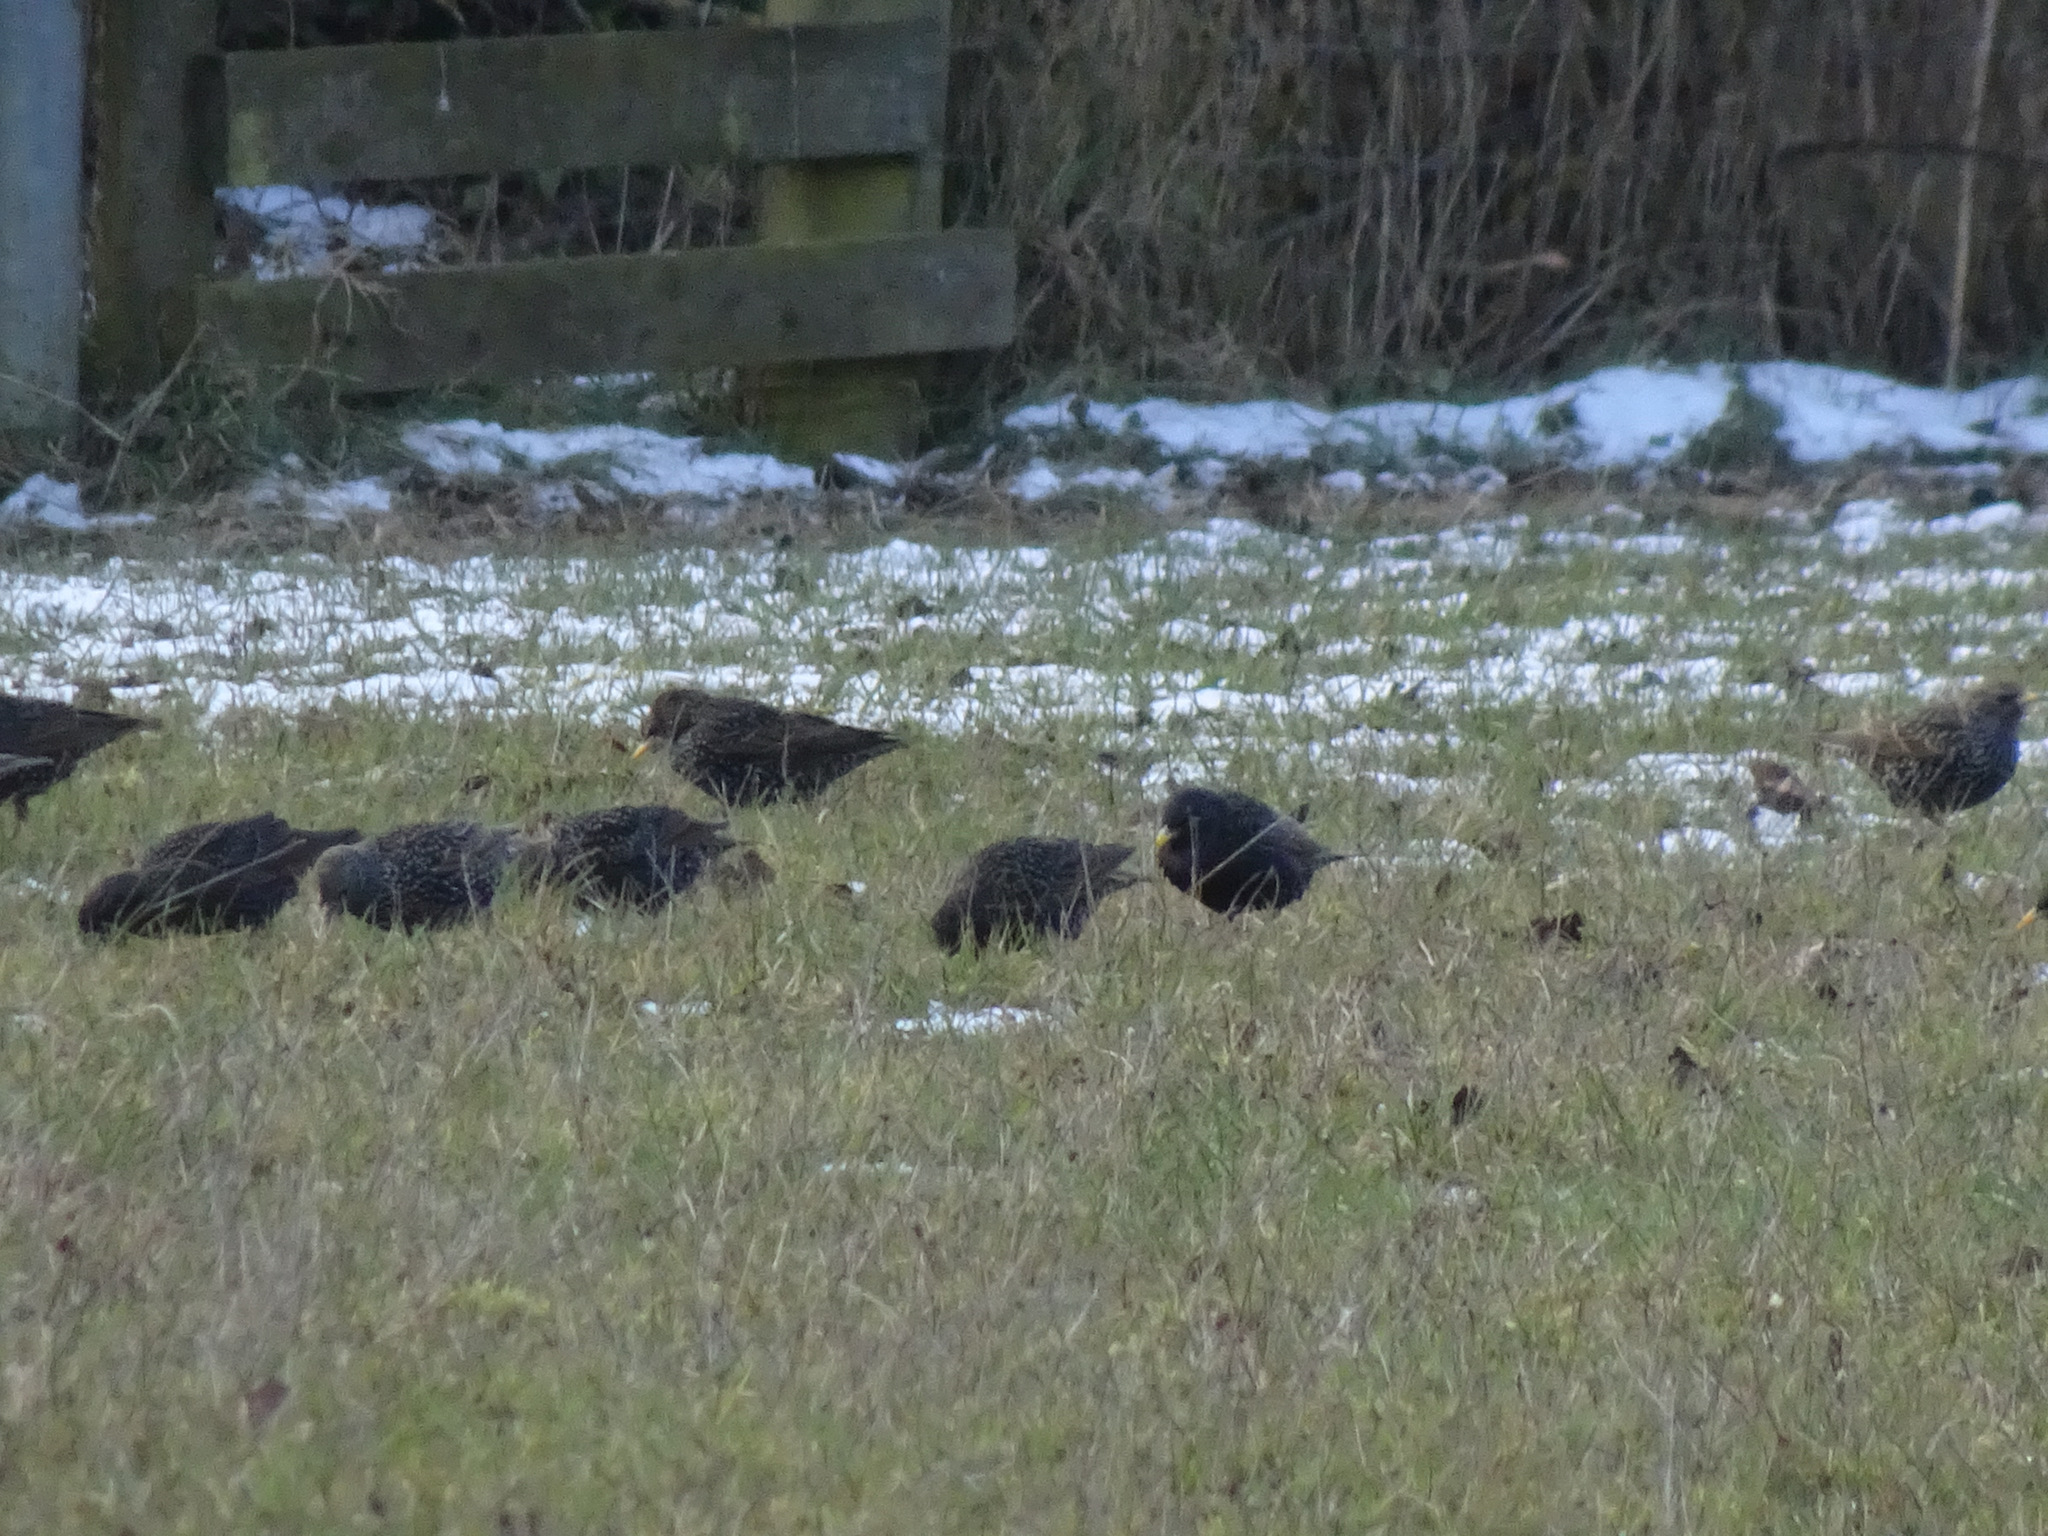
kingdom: Animalia
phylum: Chordata
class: Aves
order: Passeriformes
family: Sturnidae
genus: Sturnus
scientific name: Sturnus vulgaris
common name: Common starling
